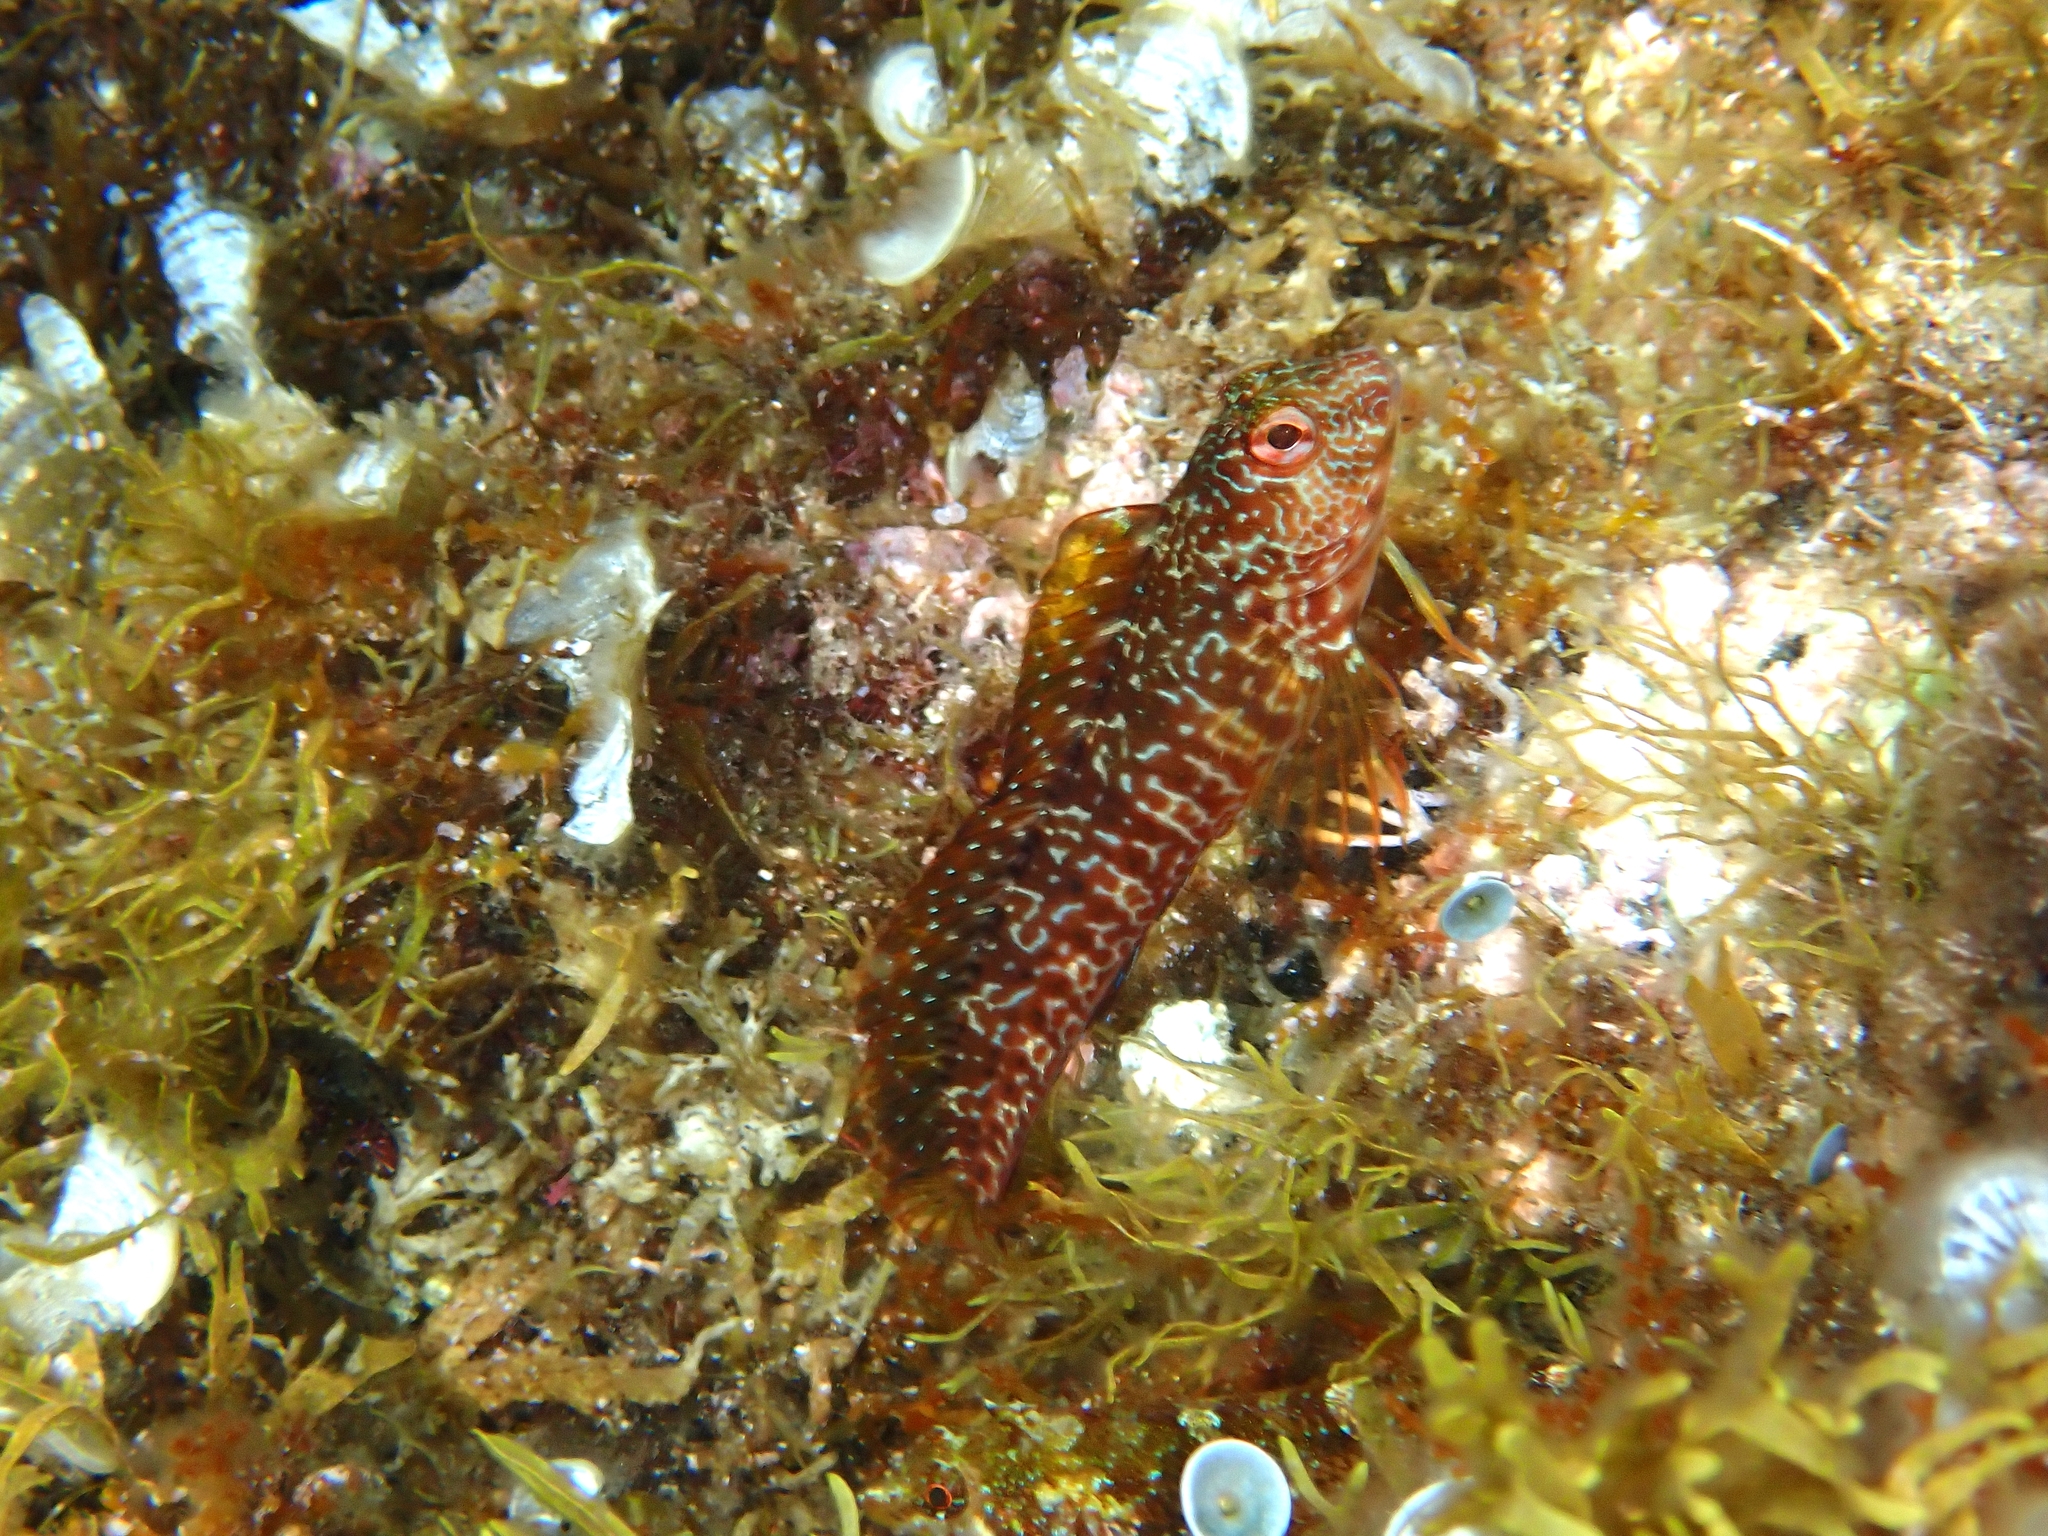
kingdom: Animalia
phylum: Chordata
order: Perciformes
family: Blenniidae
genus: Parablennius
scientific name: Parablennius pilicornis
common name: Ringneck blenny
